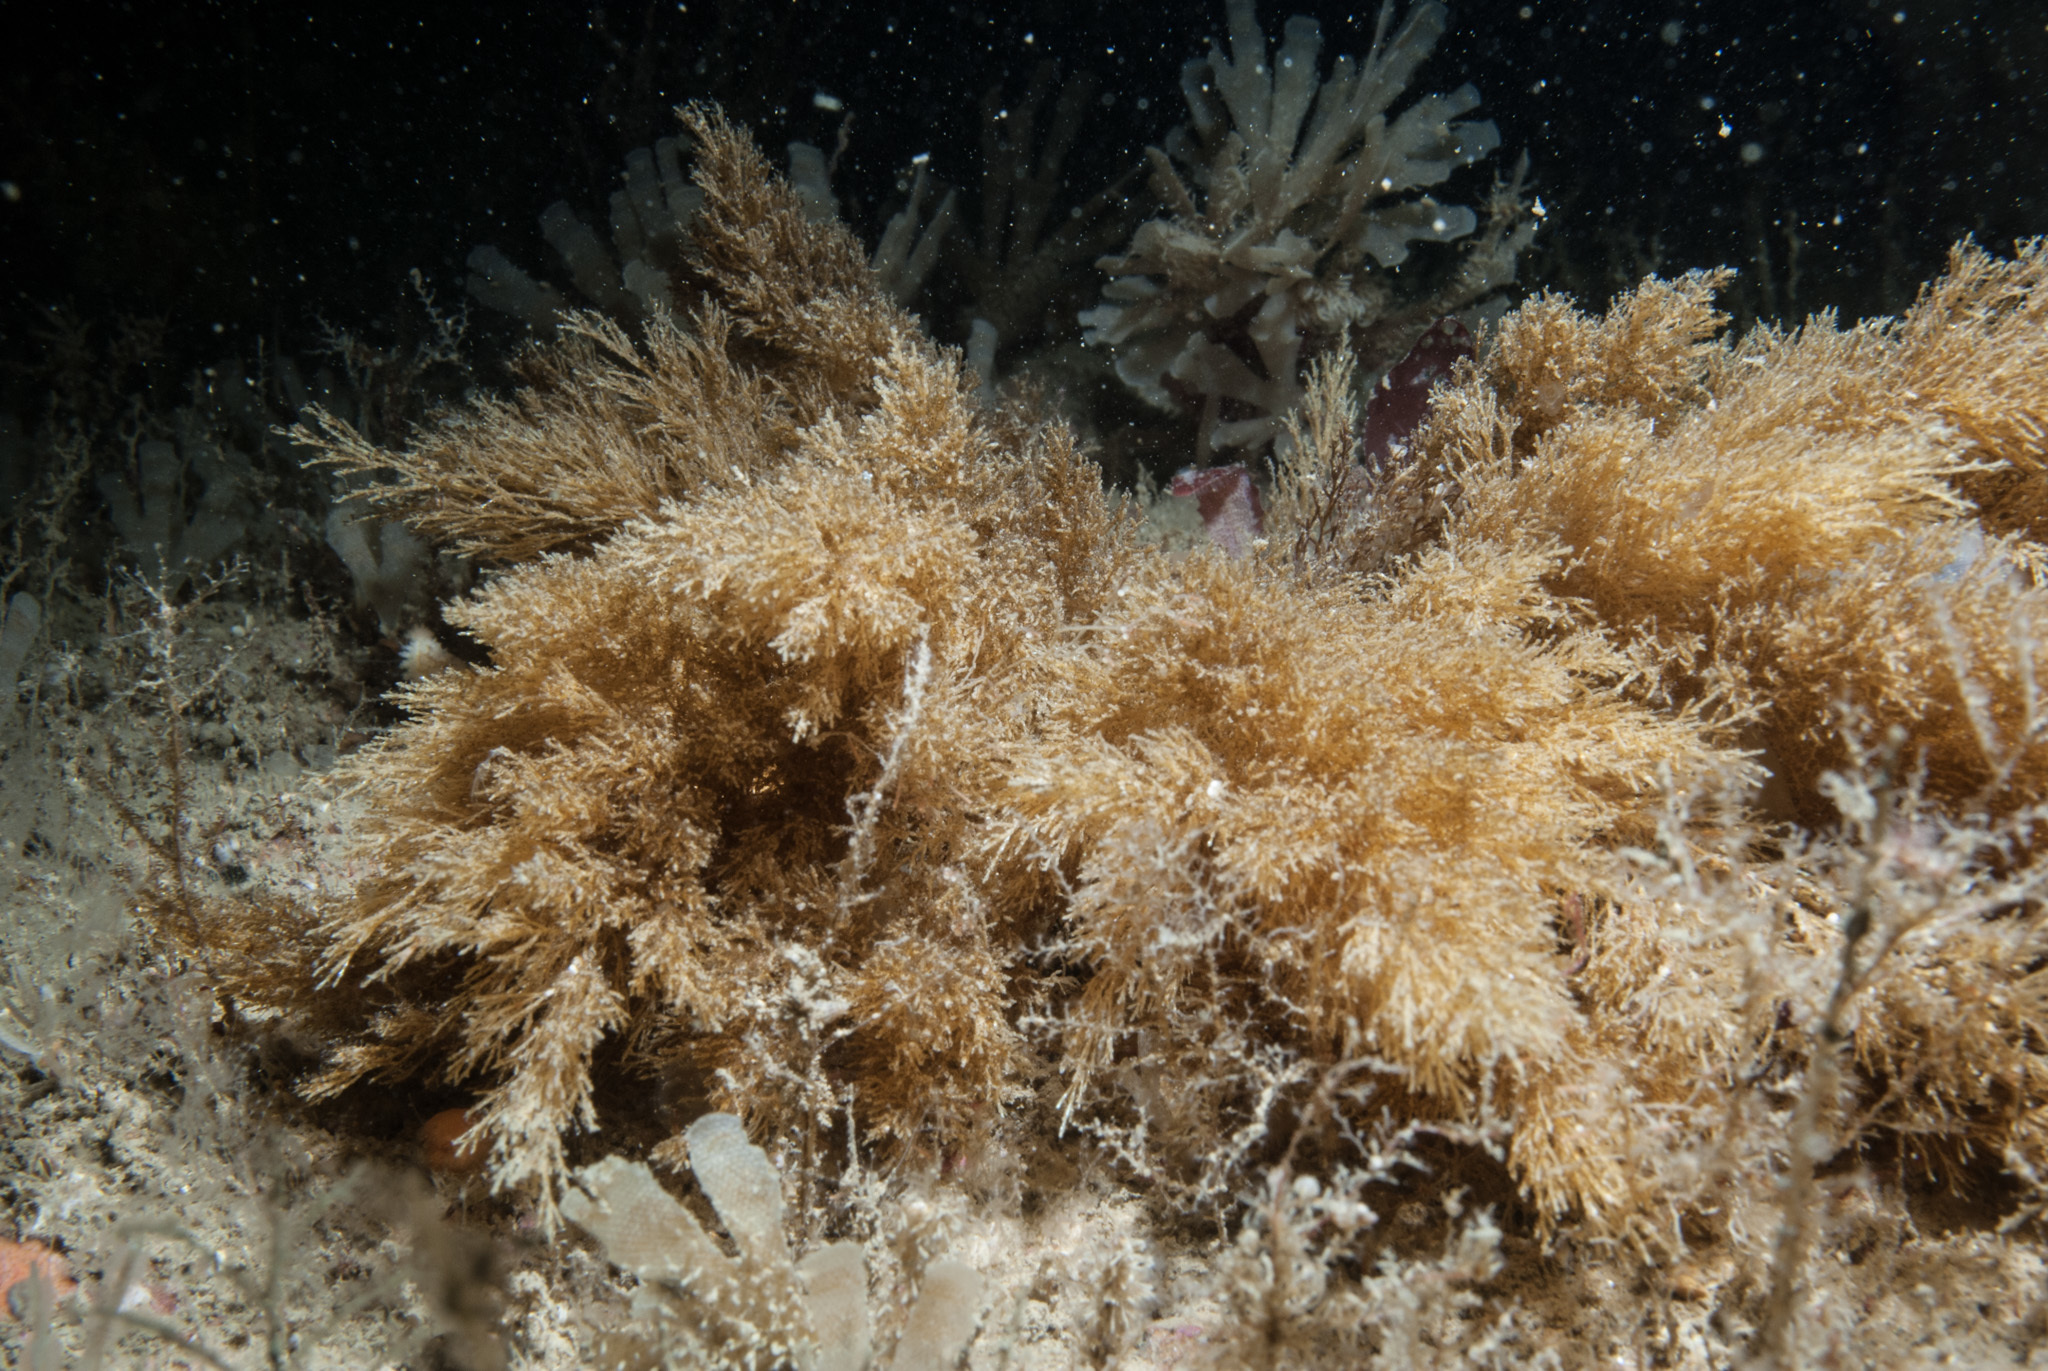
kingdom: Animalia
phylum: Bryozoa
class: Gymnolaemata
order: Cheilostomatida
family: Eucrateidae
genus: Eucratea
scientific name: Eucratea loricata
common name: Paired bryozoan
